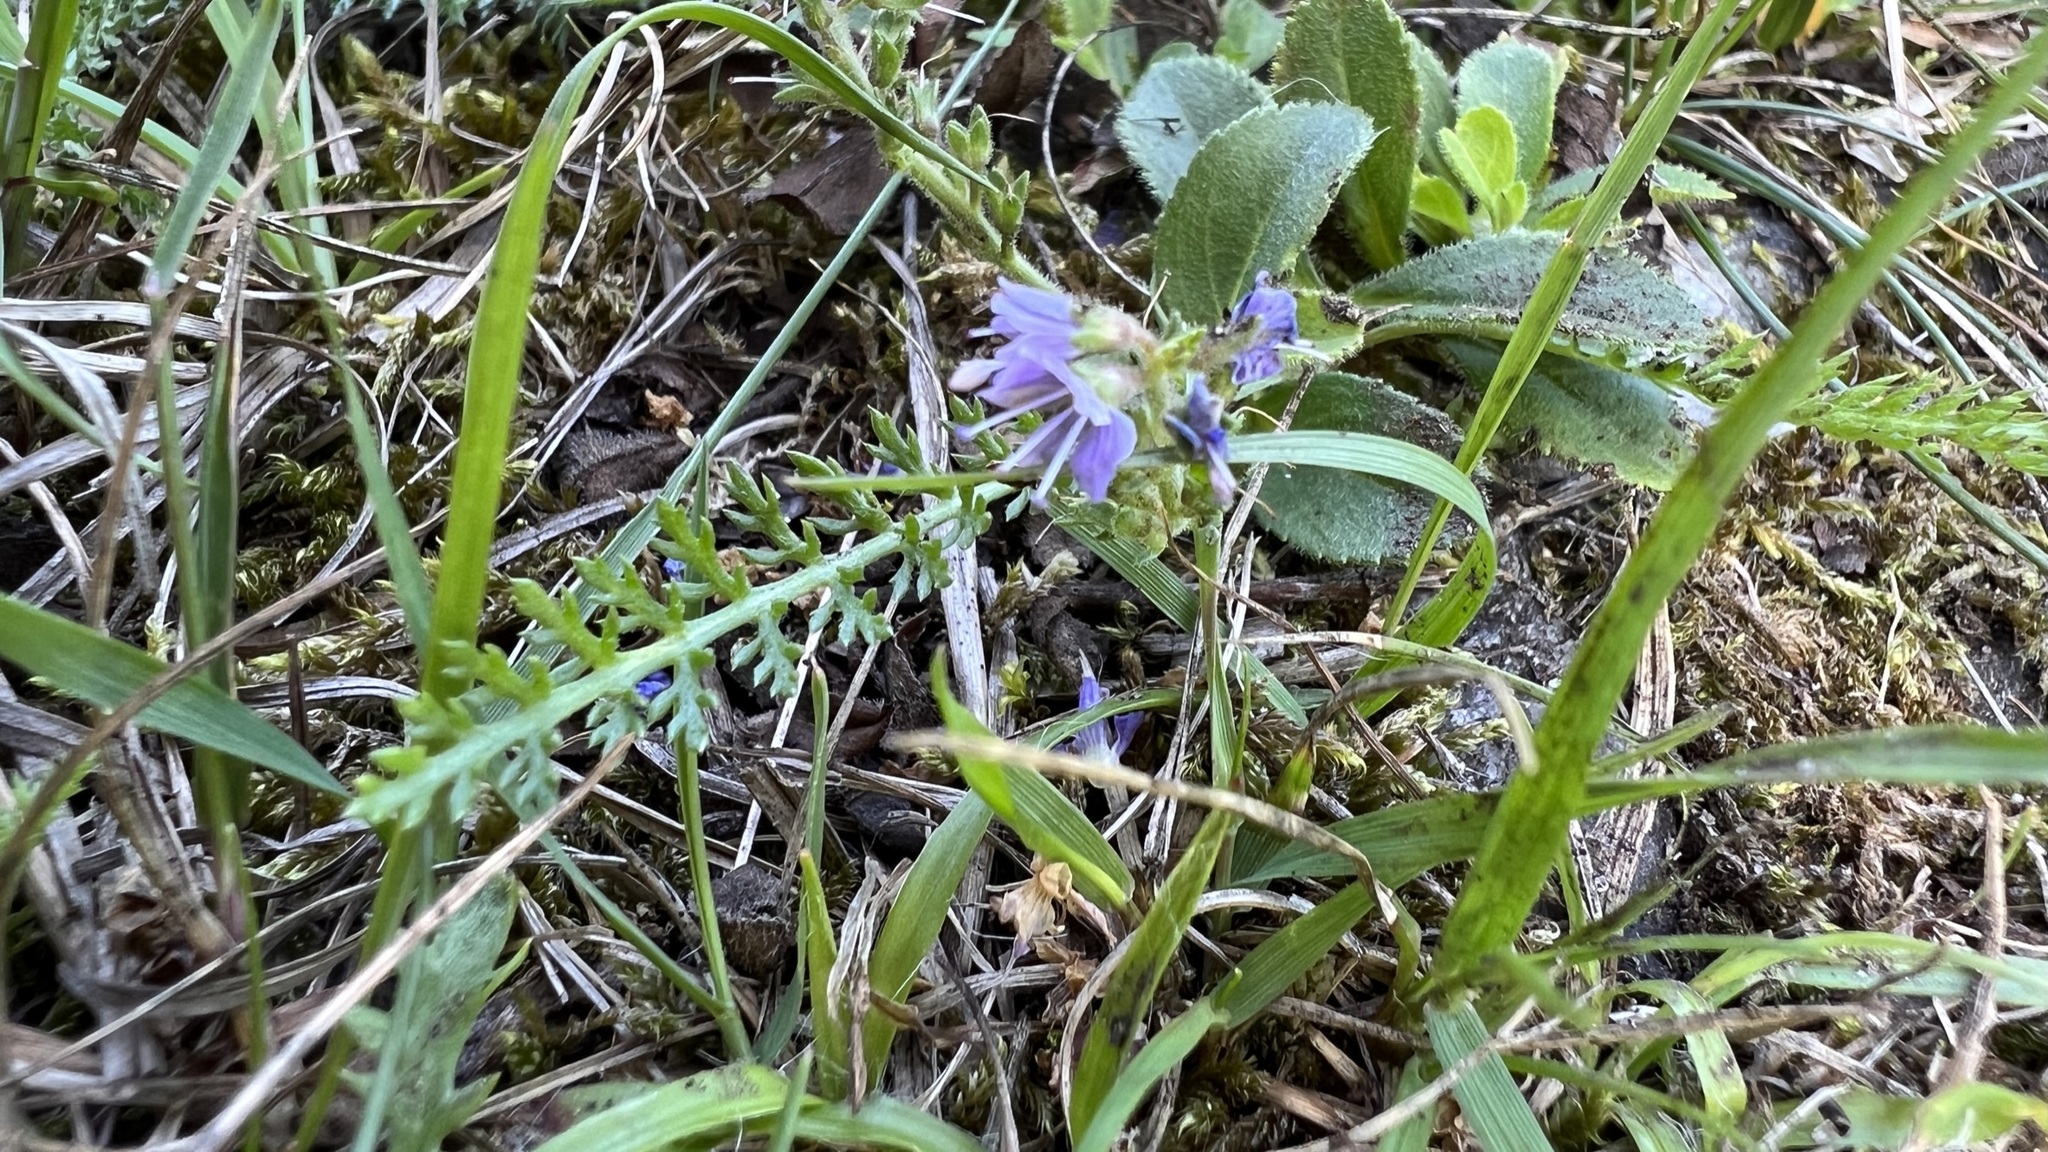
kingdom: Plantae
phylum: Tracheophyta
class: Magnoliopsida
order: Lamiales
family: Plantaginaceae
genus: Veronica
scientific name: Veronica officinalis
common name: Common speedwell
